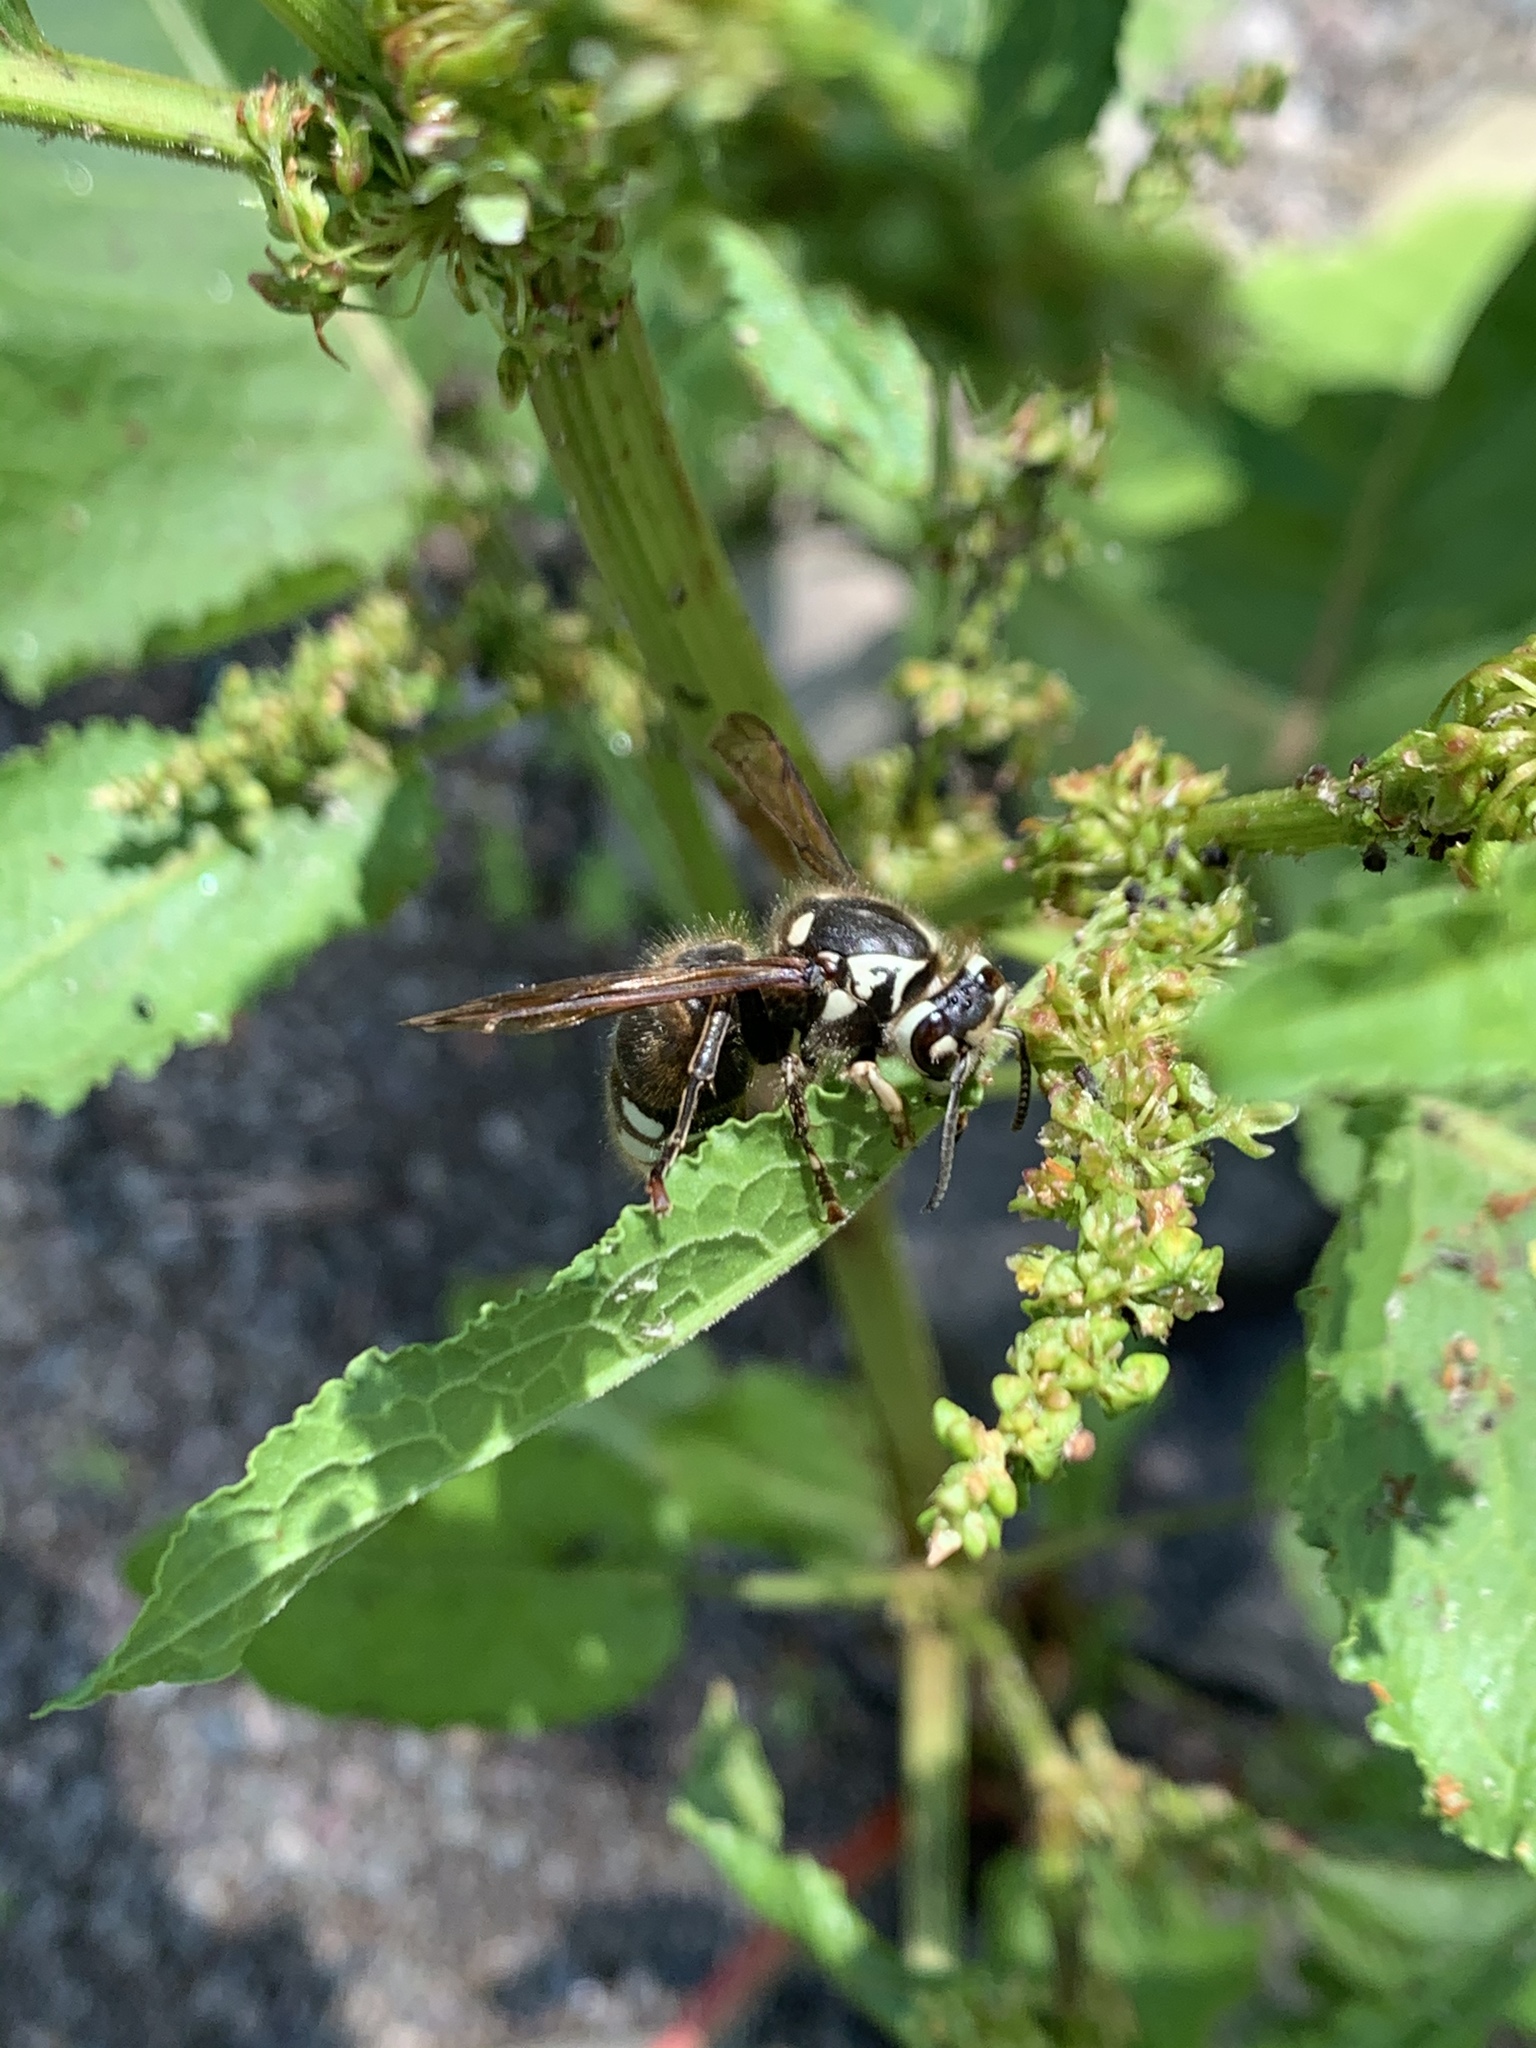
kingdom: Animalia
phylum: Arthropoda
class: Insecta
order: Hymenoptera
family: Vespidae
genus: Dolichovespula
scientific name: Dolichovespula maculata
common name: Bald-faced hornet
